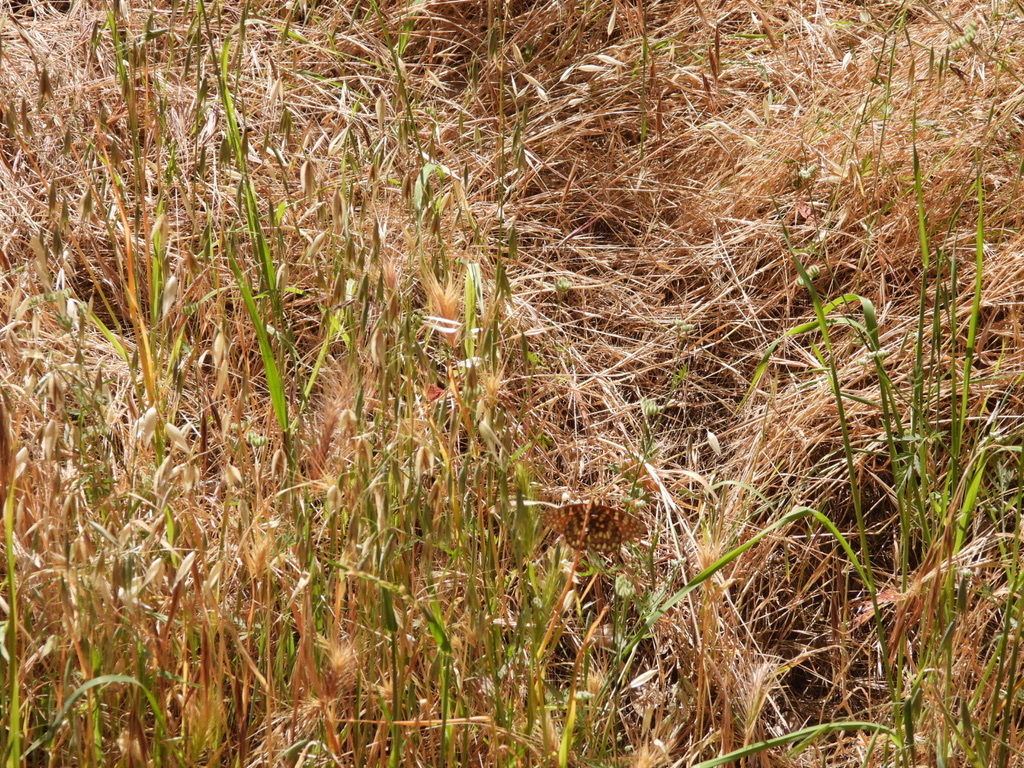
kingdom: Animalia
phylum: Arthropoda
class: Insecta
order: Lepidoptera
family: Nymphalidae
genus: Occidryas
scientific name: Occidryas chalcedona
